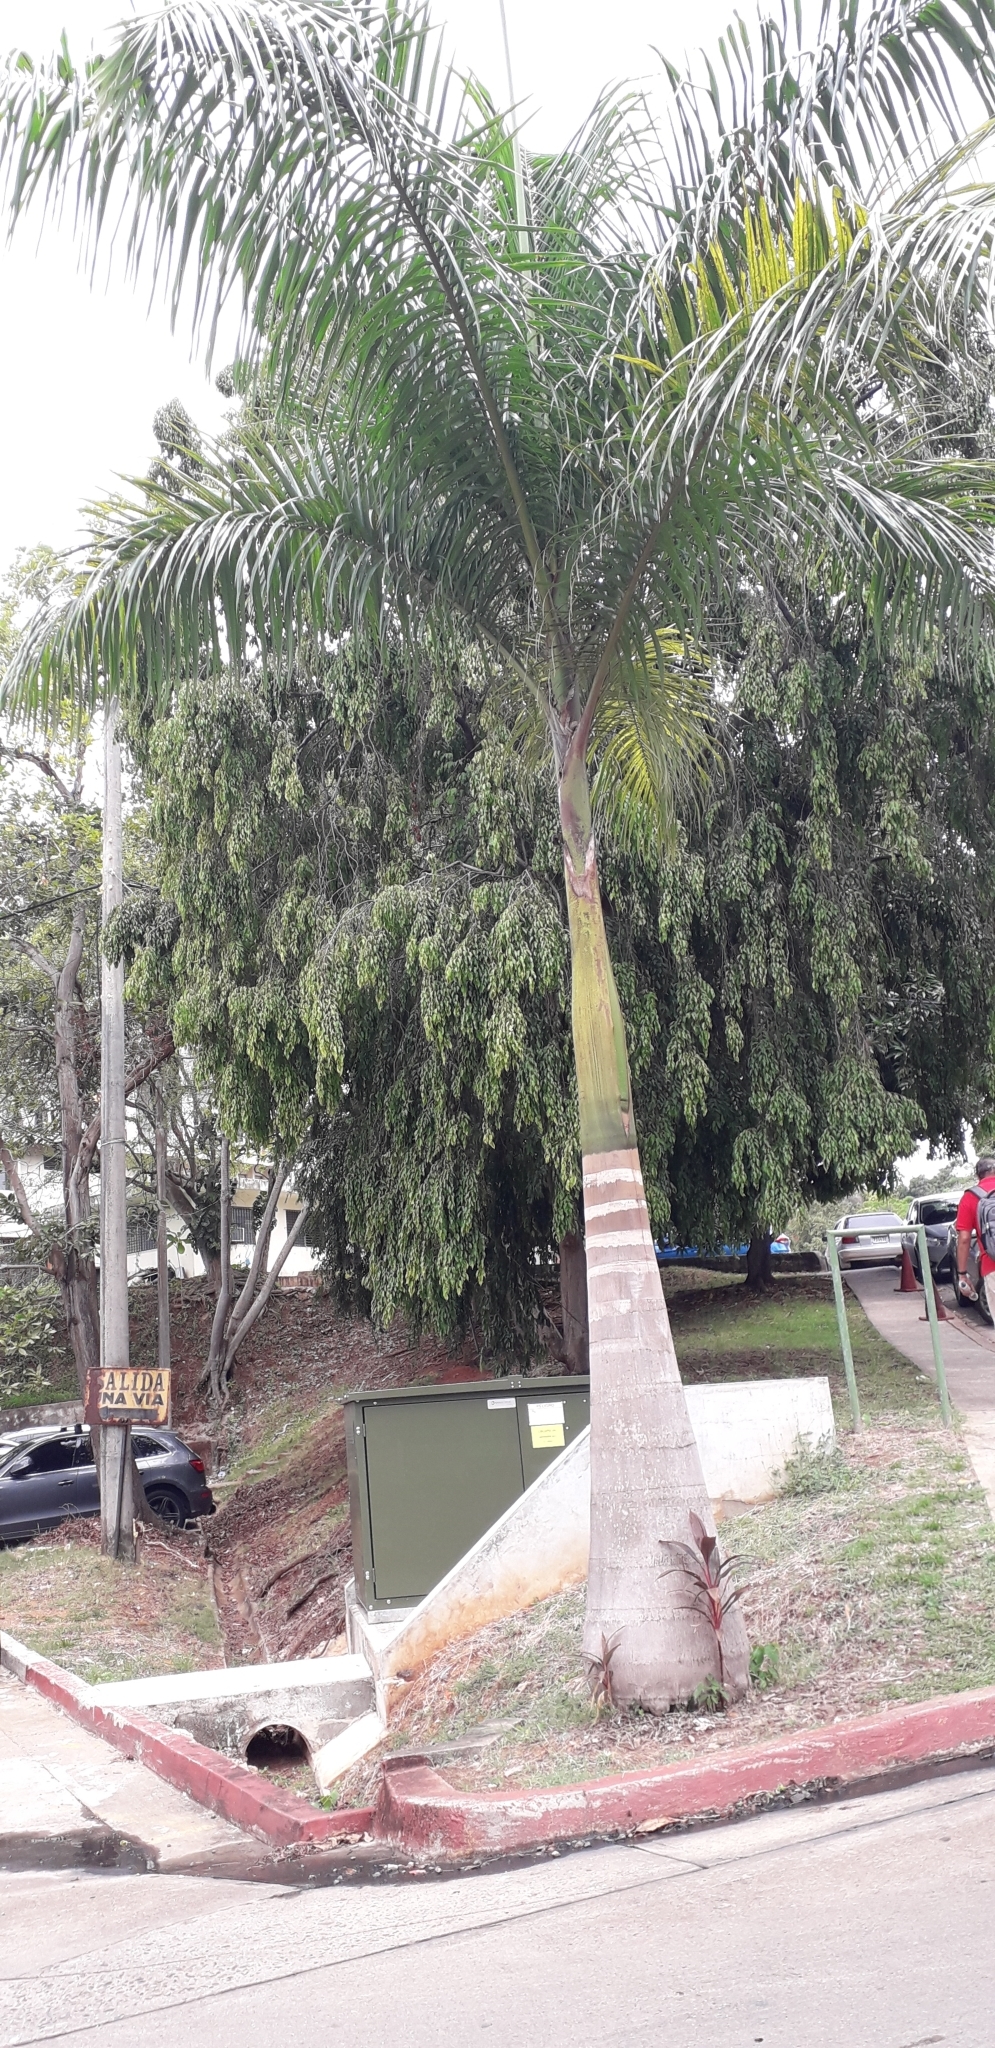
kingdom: Plantae
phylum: Tracheophyta
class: Liliopsida
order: Arecales
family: Arecaceae
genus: Roystonea
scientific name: Roystonea regia
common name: Florida royal palm
